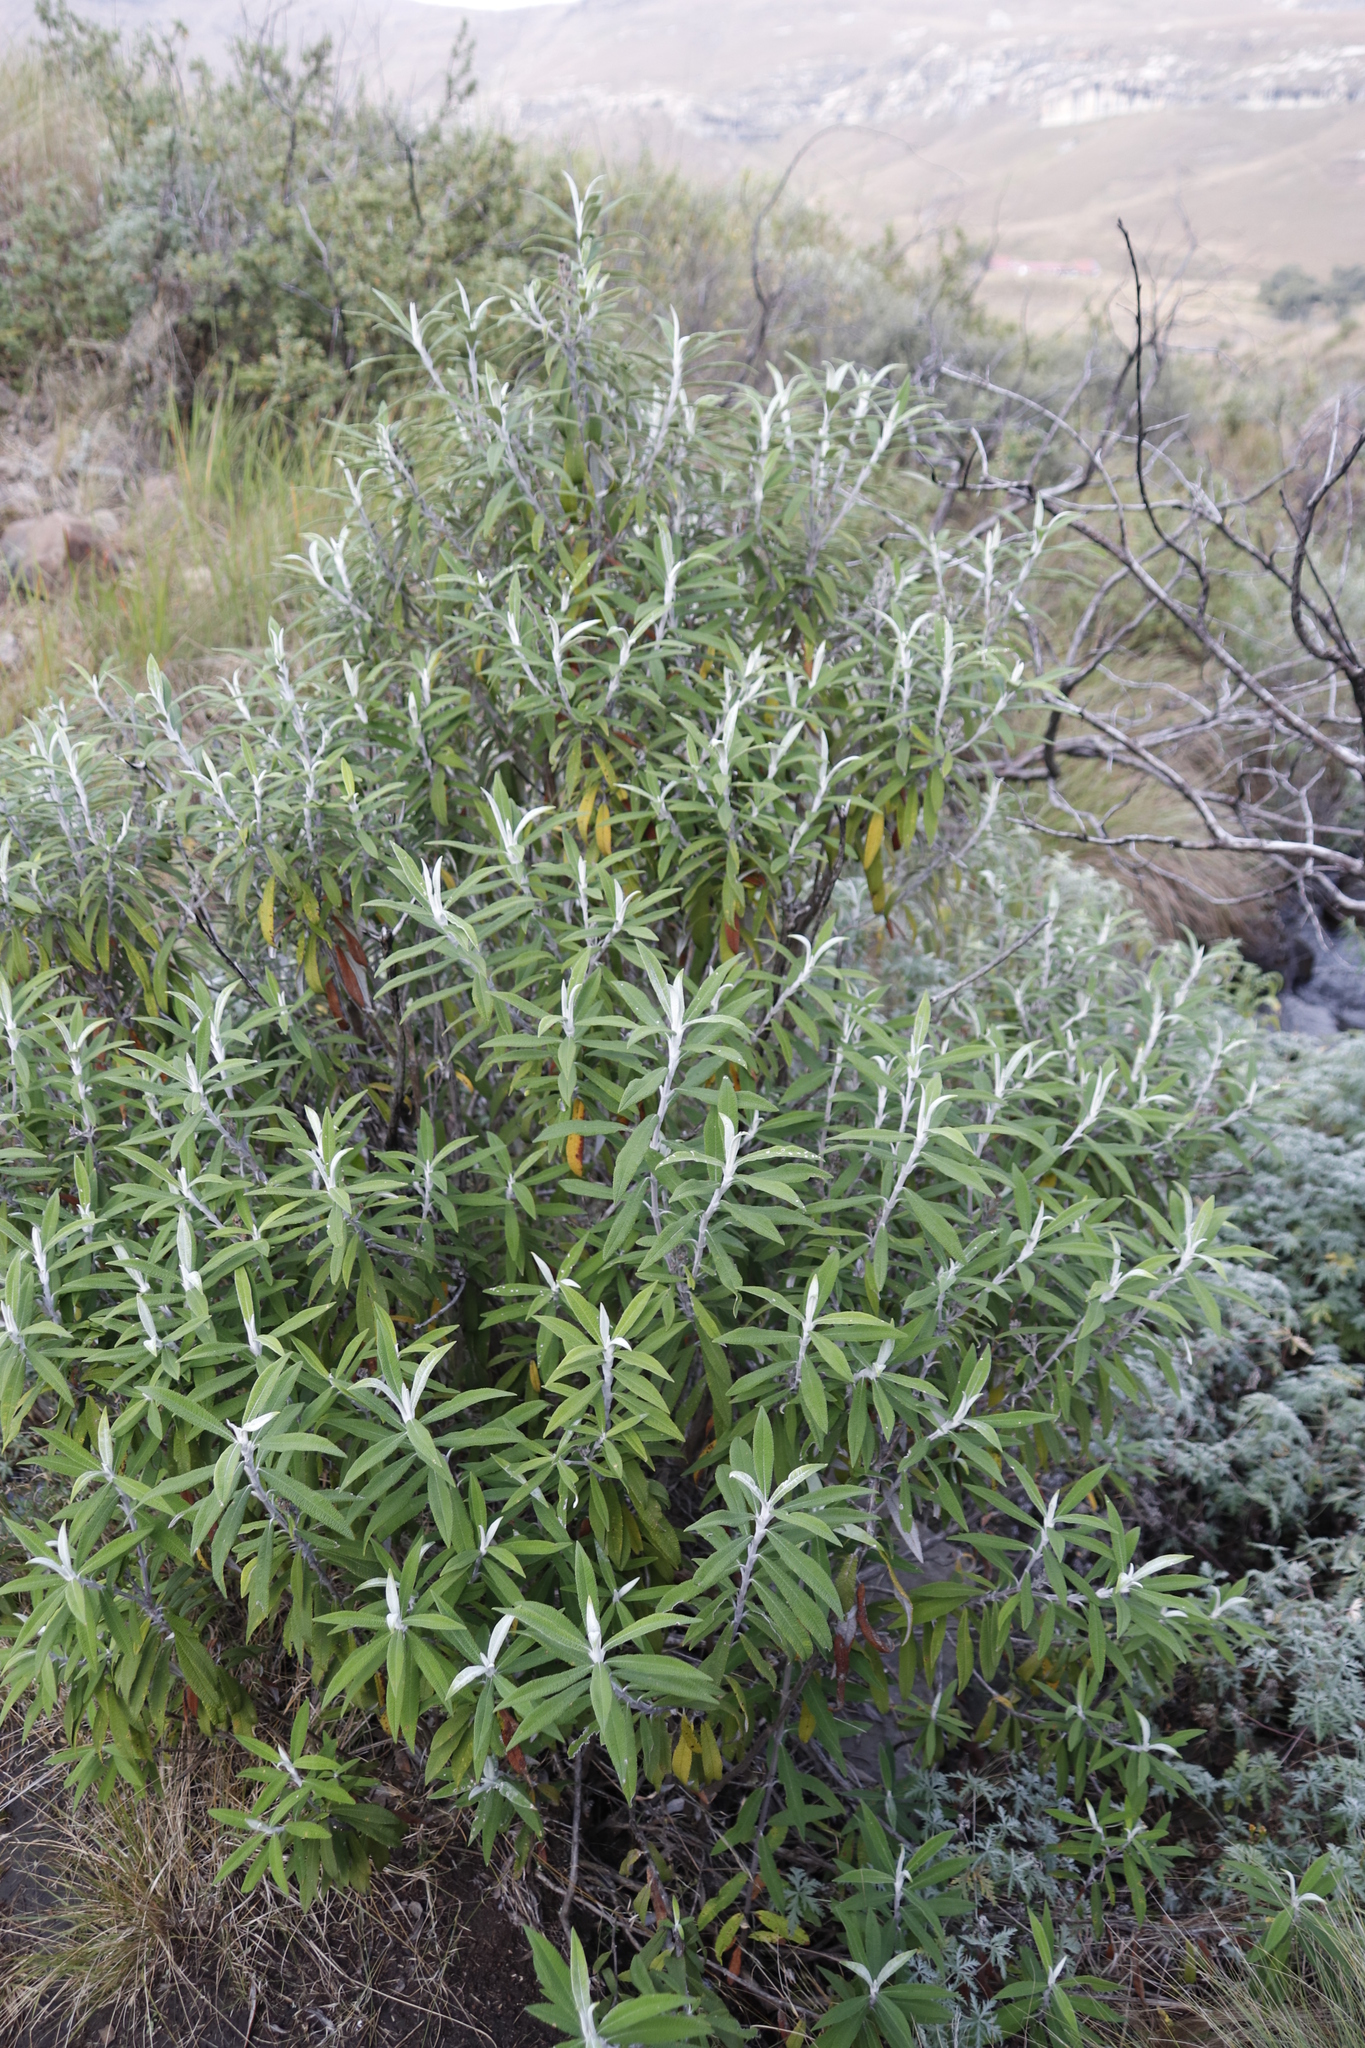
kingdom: Plantae
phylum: Tracheophyta
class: Magnoliopsida
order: Lamiales
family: Scrophulariaceae
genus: Buddleja
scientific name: Buddleja loricata
